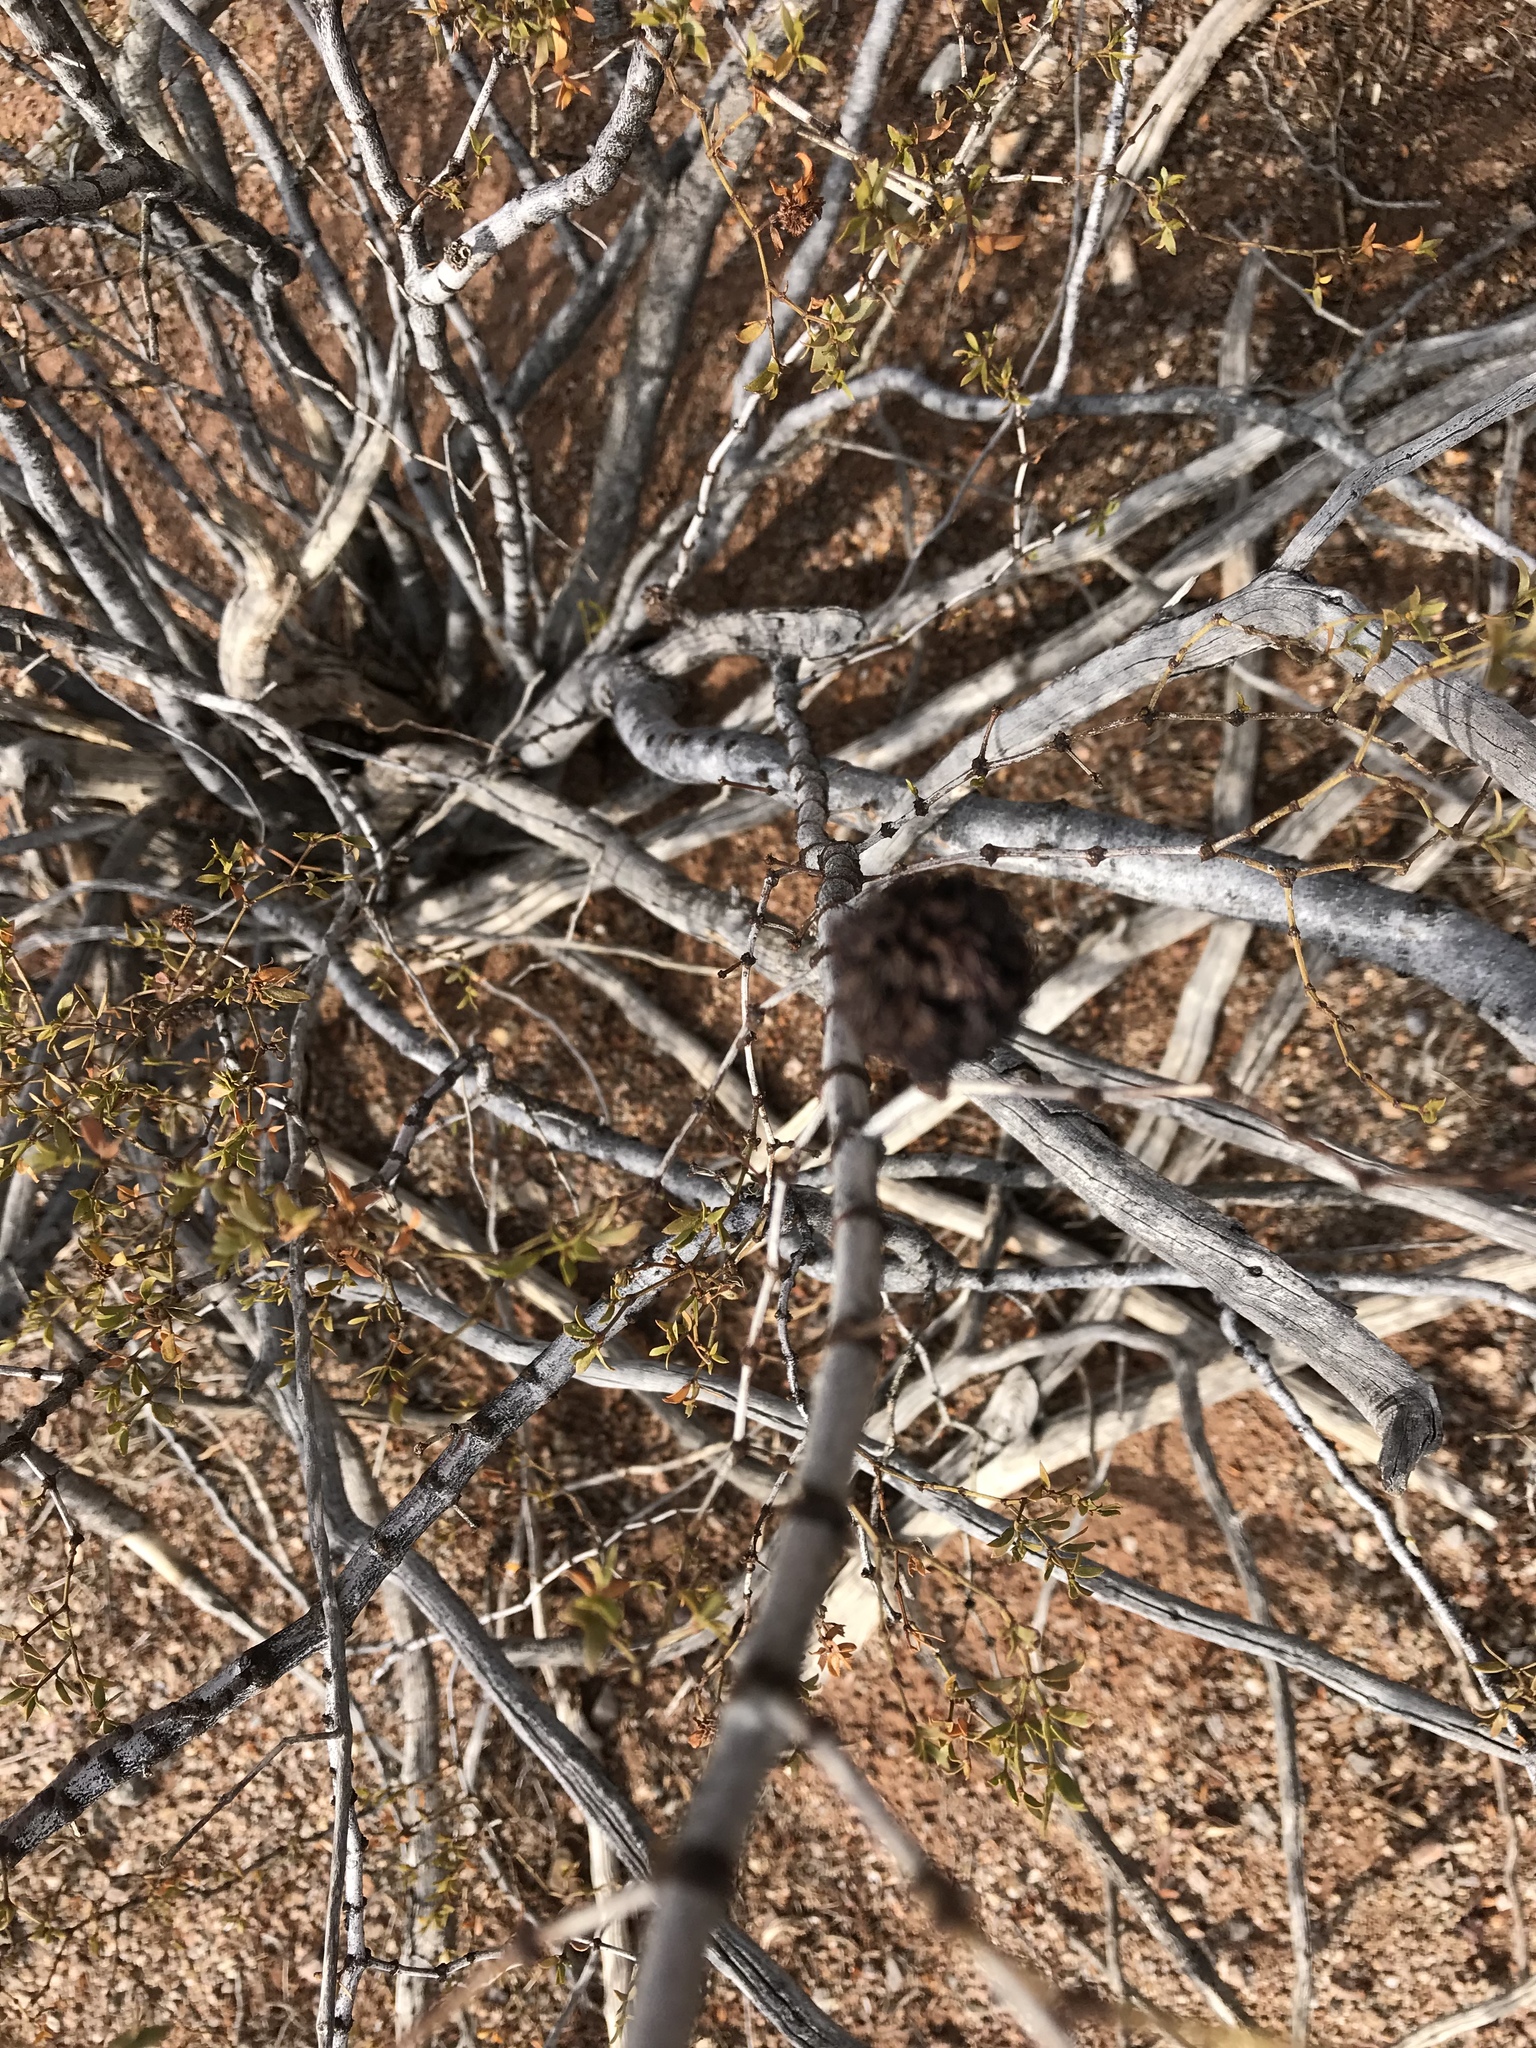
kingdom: Animalia
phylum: Arthropoda
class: Insecta
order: Diptera
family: Cecidomyiidae
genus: Asphondylia
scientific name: Asphondylia auripila
